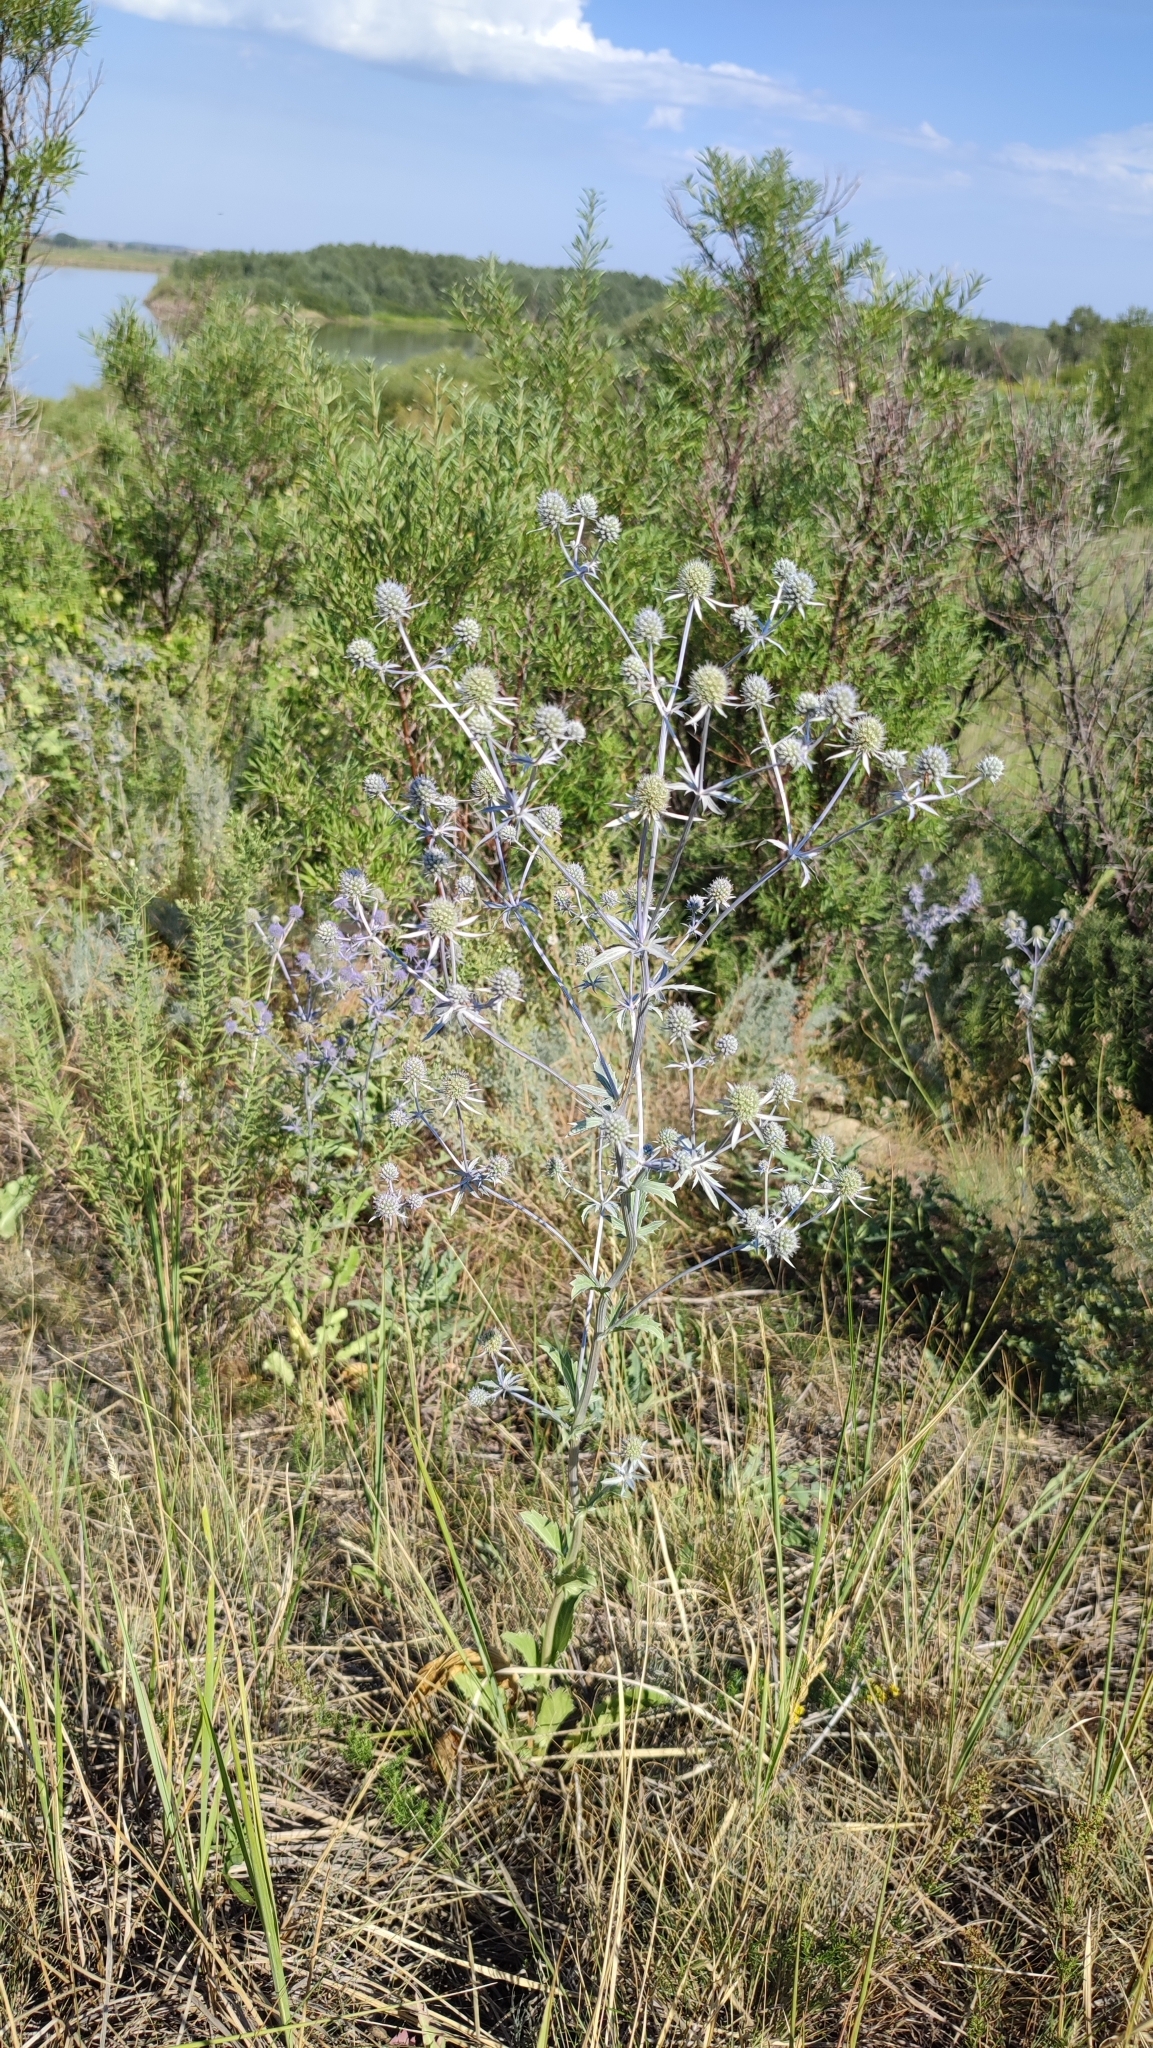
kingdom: Plantae
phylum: Tracheophyta
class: Magnoliopsida
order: Apiales
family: Apiaceae
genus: Eryngium
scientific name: Eryngium planum
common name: Blue eryngo
